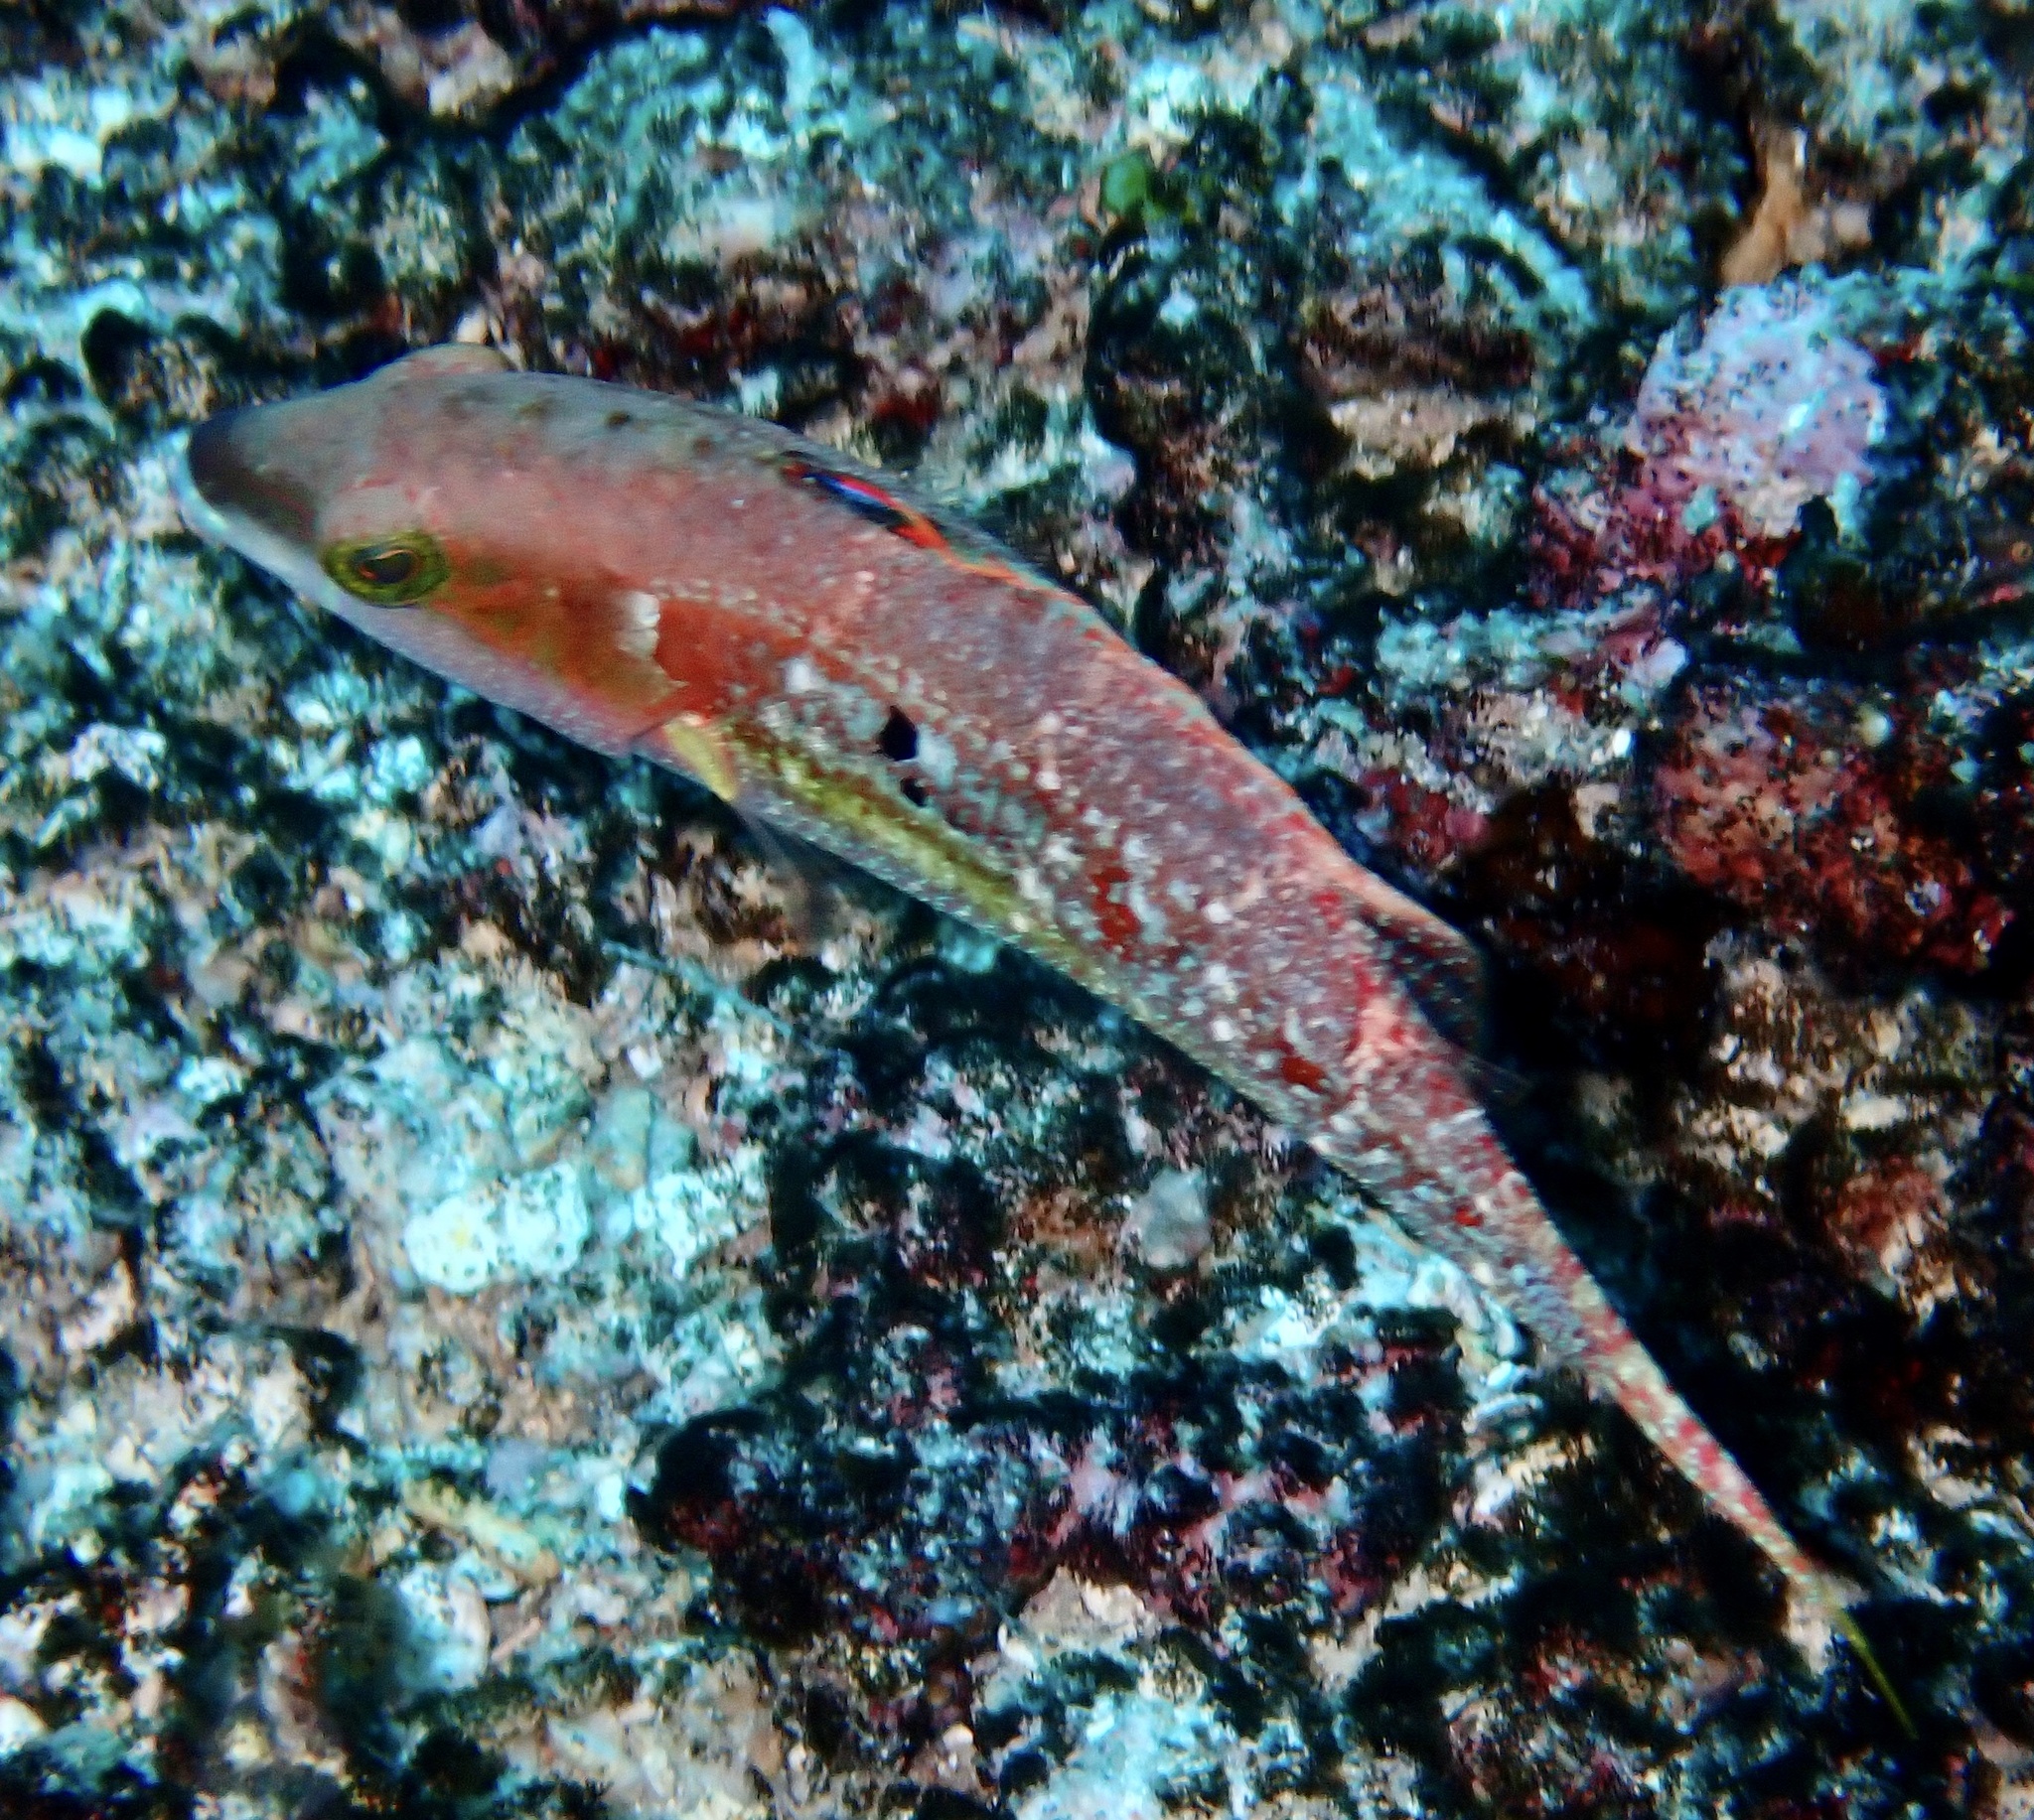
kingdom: Animalia
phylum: Chordata
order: Perciformes
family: Labridae
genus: Oxycheilinus
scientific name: Oxycheilinus bimaculatus
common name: Comettailed wrasse
